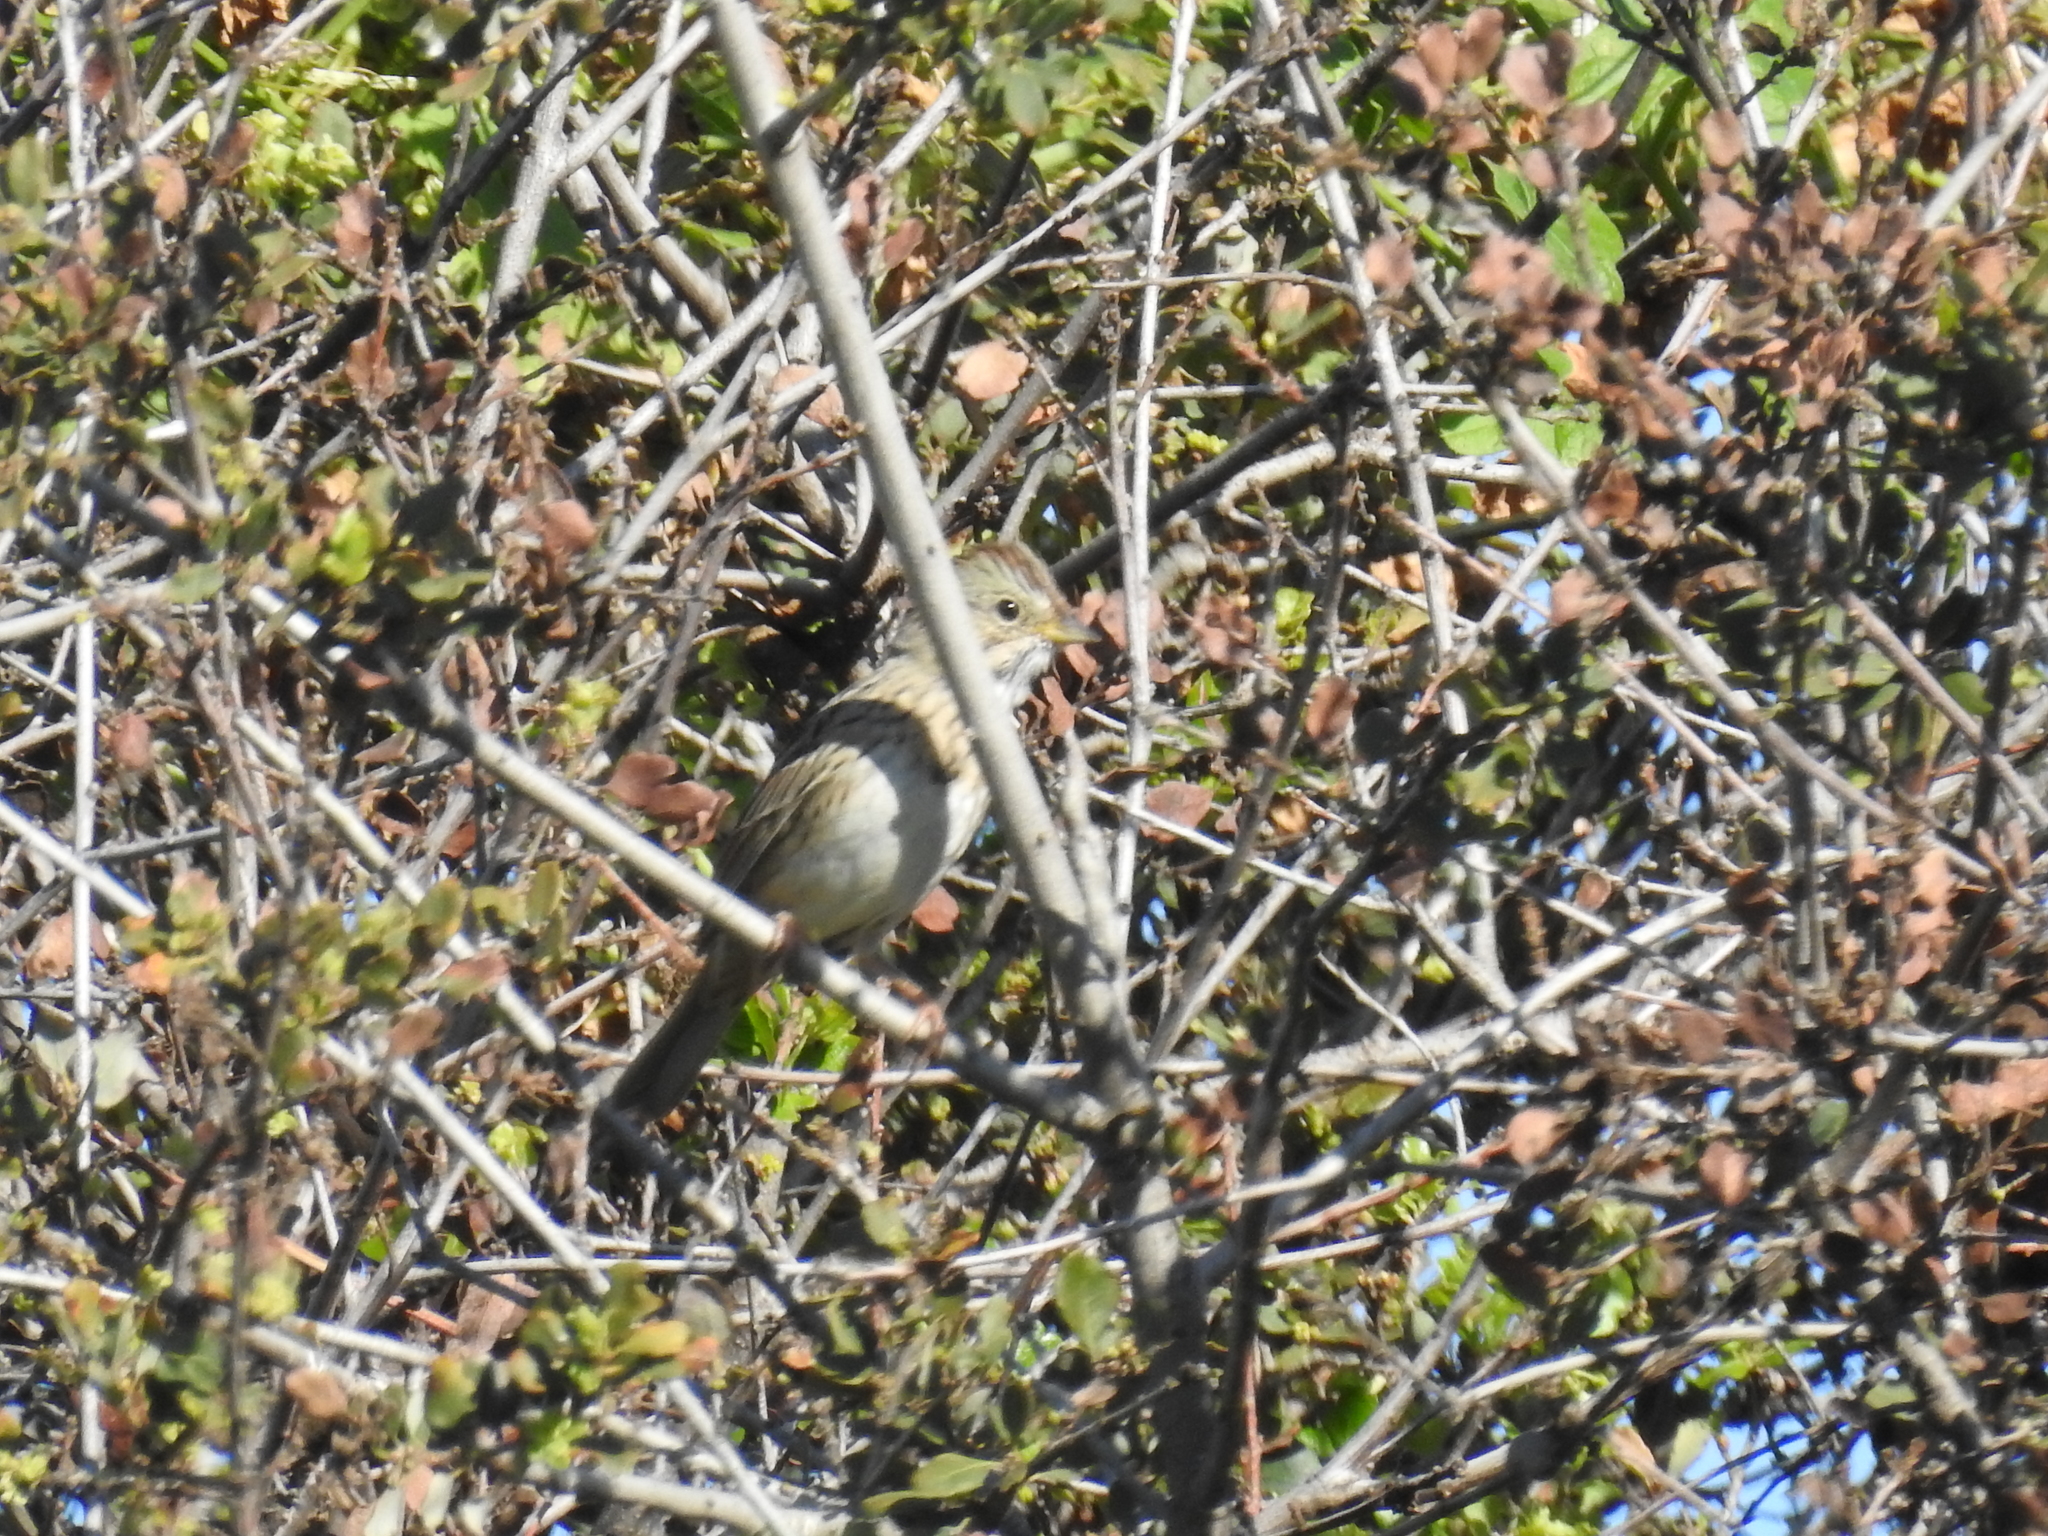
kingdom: Animalia
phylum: Chordata
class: Aves
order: Passeriformes
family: Passerellidae
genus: Melospiza
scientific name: Melospiza lincolnii
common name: Lincoln's sparrow
